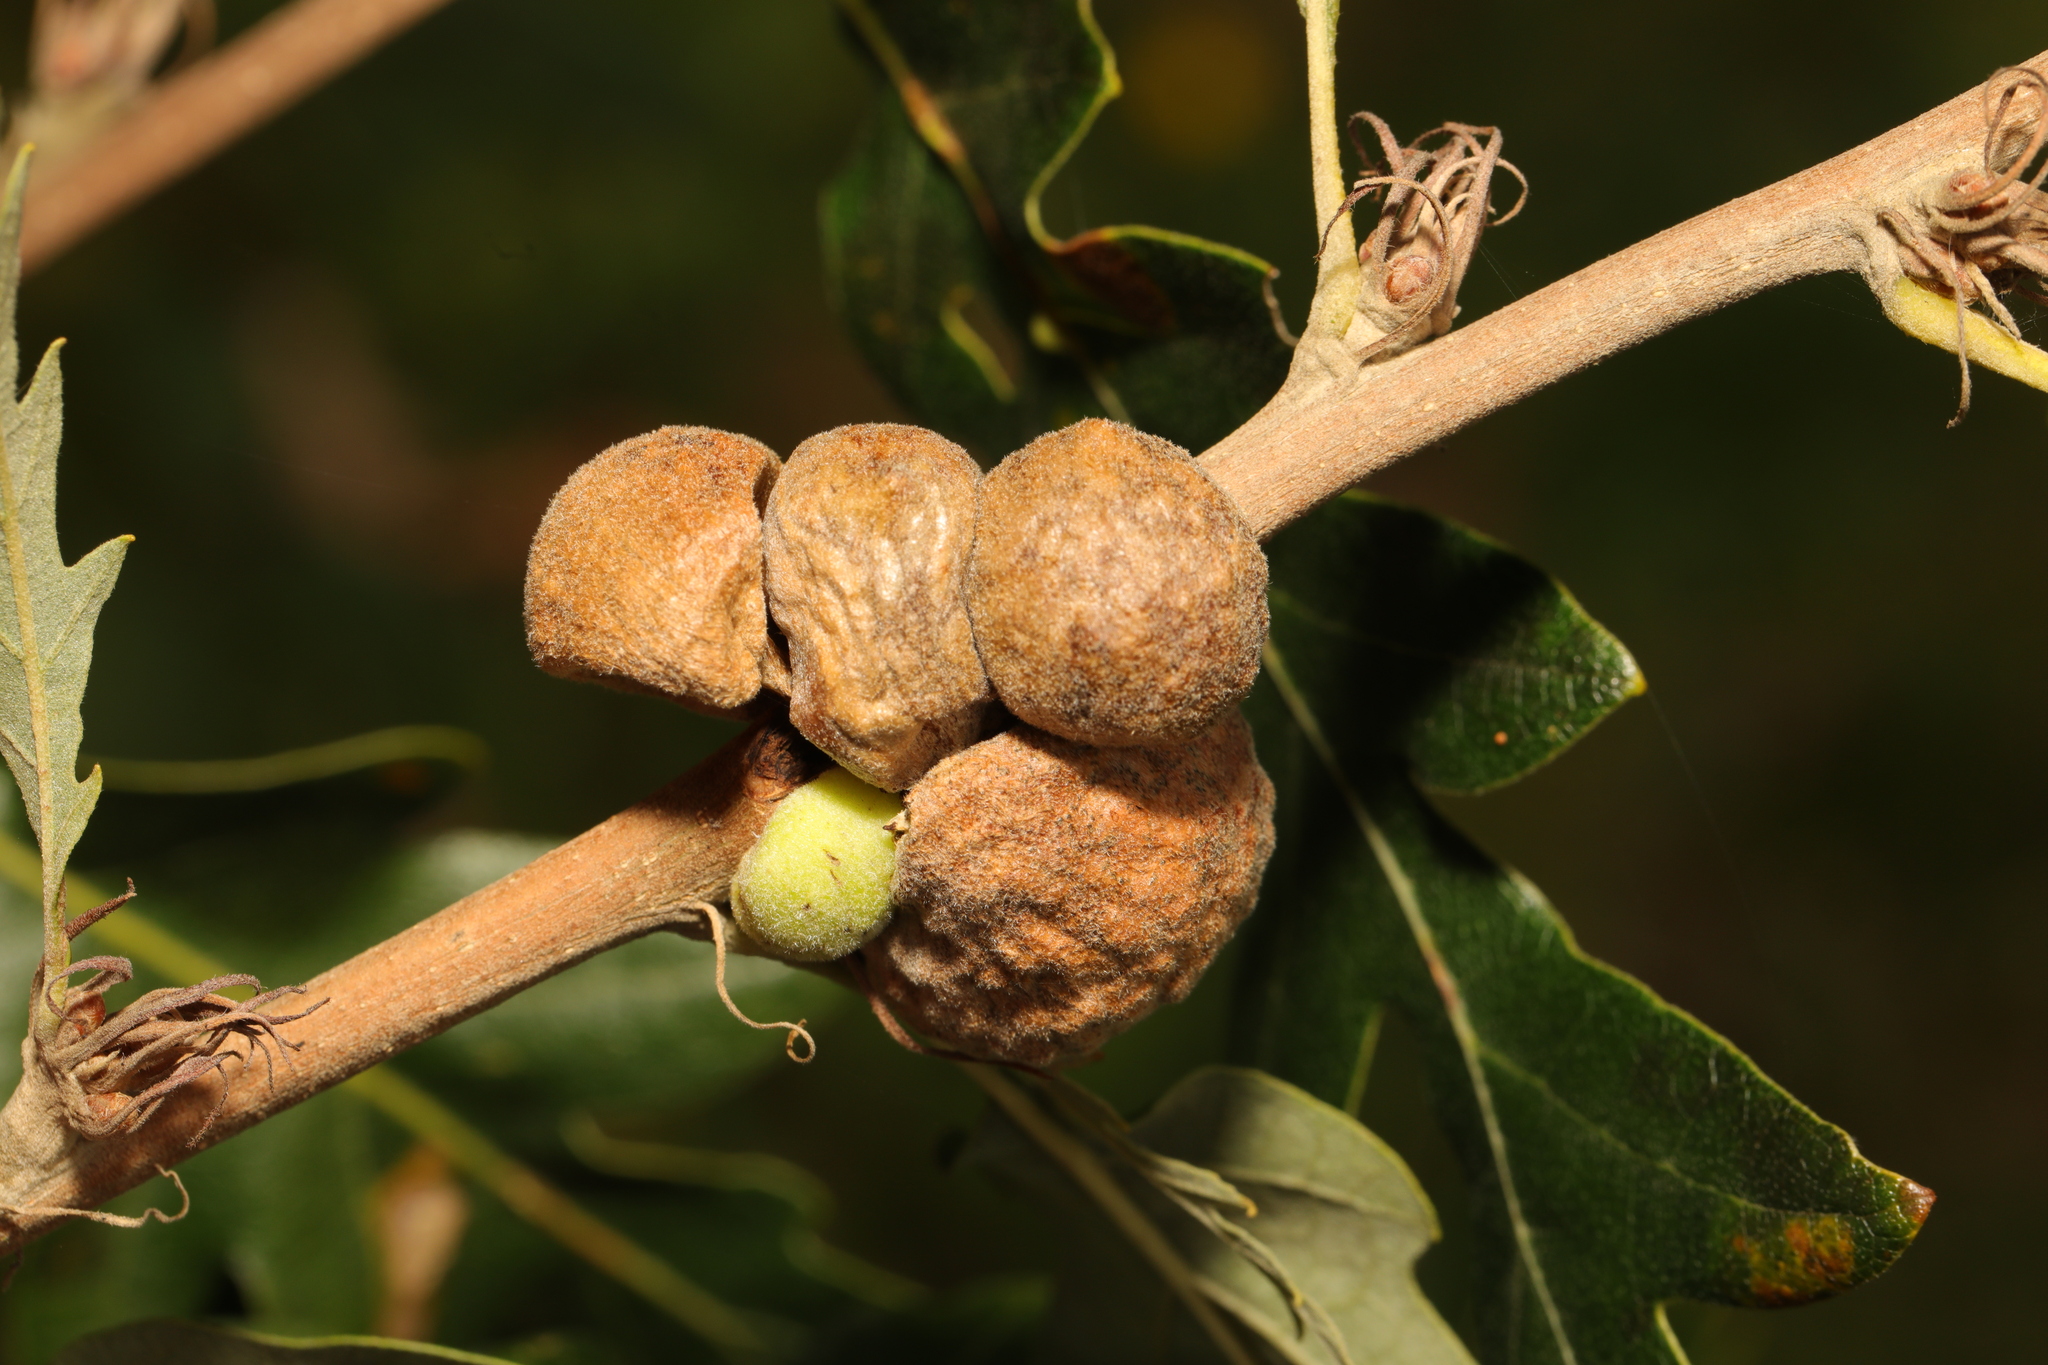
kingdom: Animalia
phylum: Arthropoda
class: Insecta
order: Hymenoptera
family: Cynipidae
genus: Aphelonyx
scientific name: Aphelonyx cerricola
